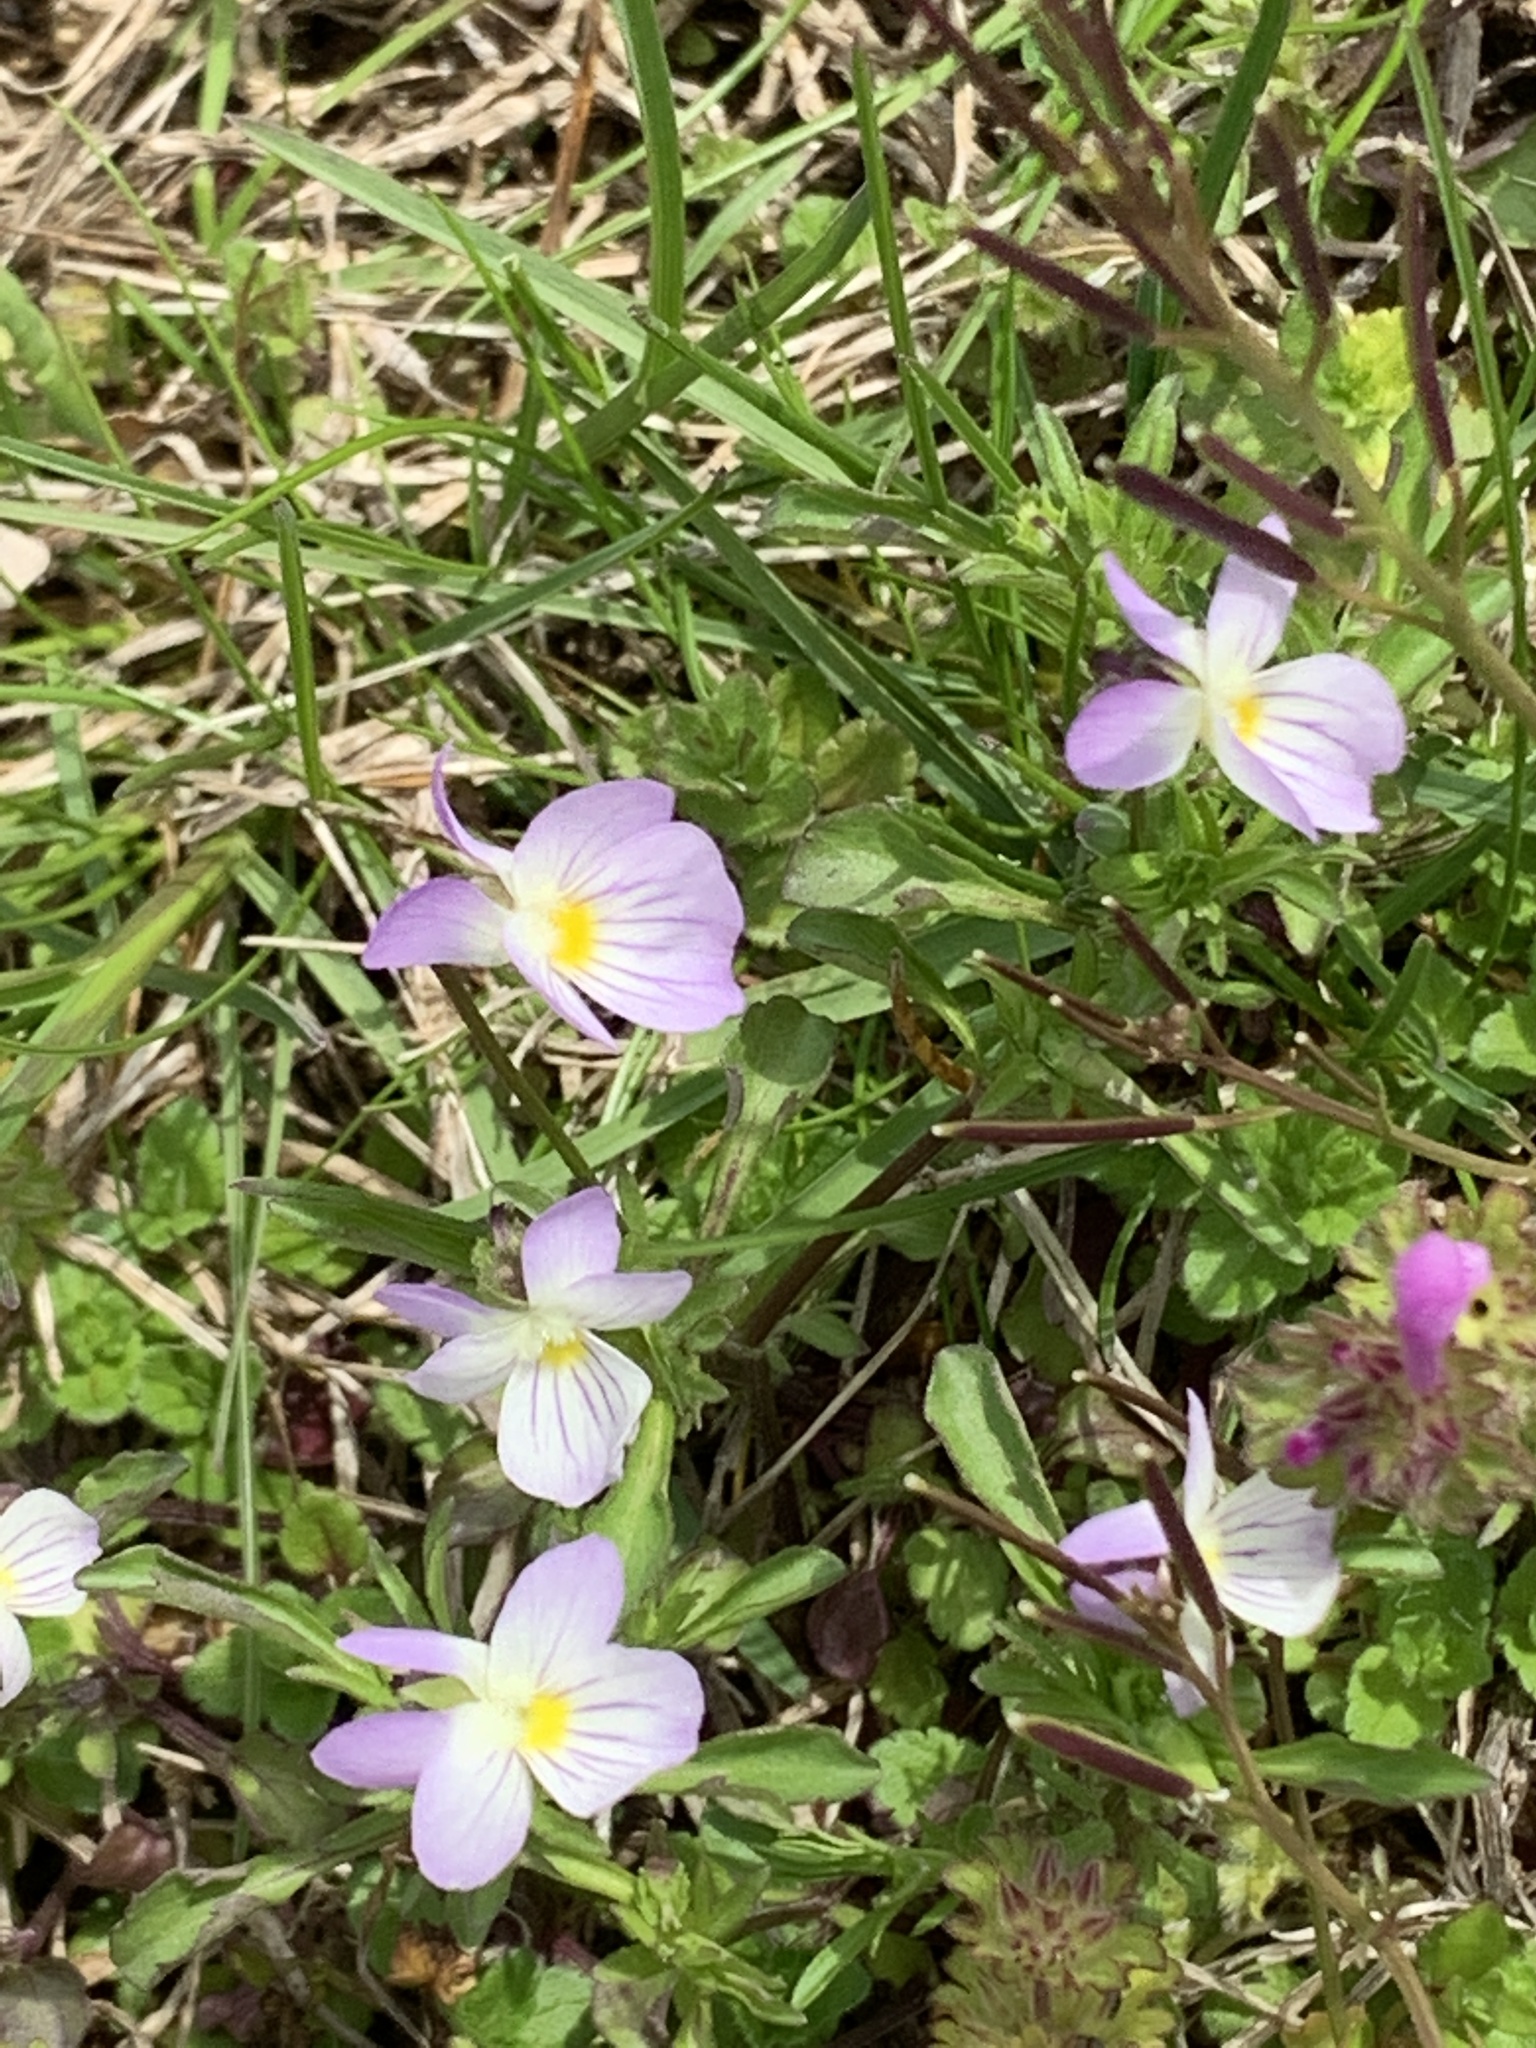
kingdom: Plantae
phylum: Tracheophyta
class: Magnoliopsida
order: Malpighiales
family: Violaceae
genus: Viola
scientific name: Viola rafinesquei
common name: American field pansy
